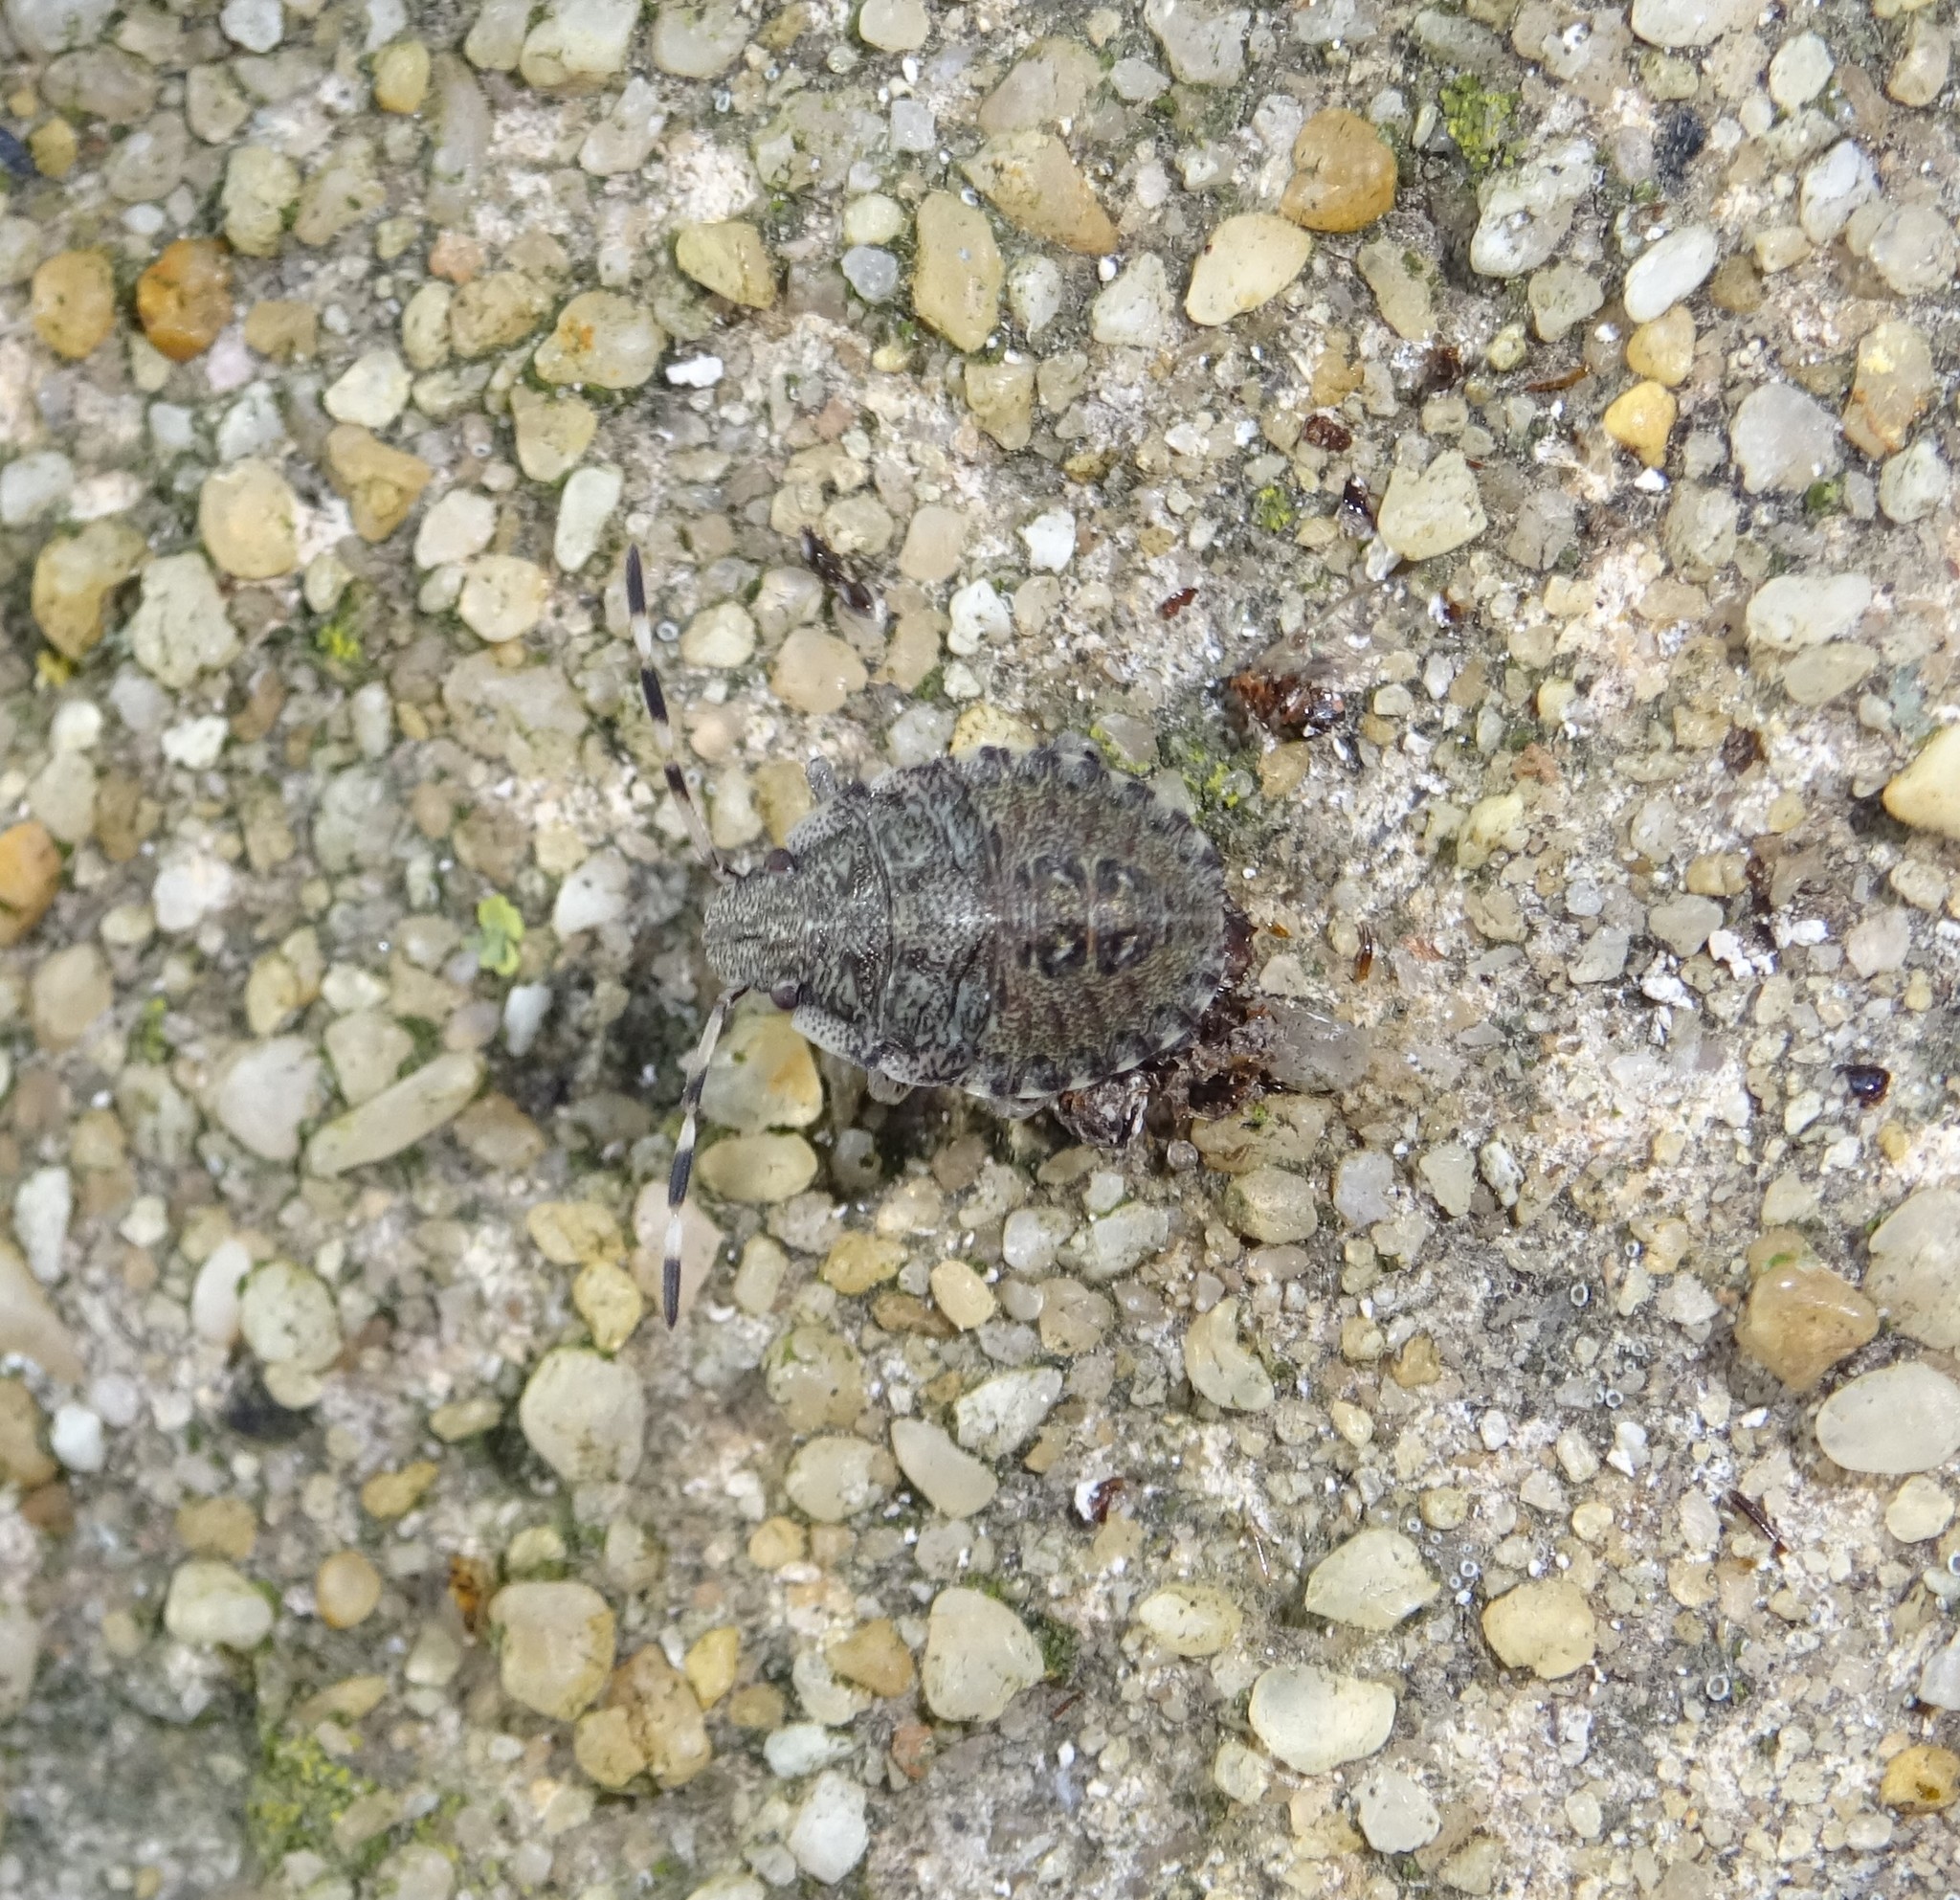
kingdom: Animalia
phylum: Arthropoda
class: Insecta
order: Hemiptera
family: Pentatomidae
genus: Rhaphigaster
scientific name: Rhaphigaster nebulosa
